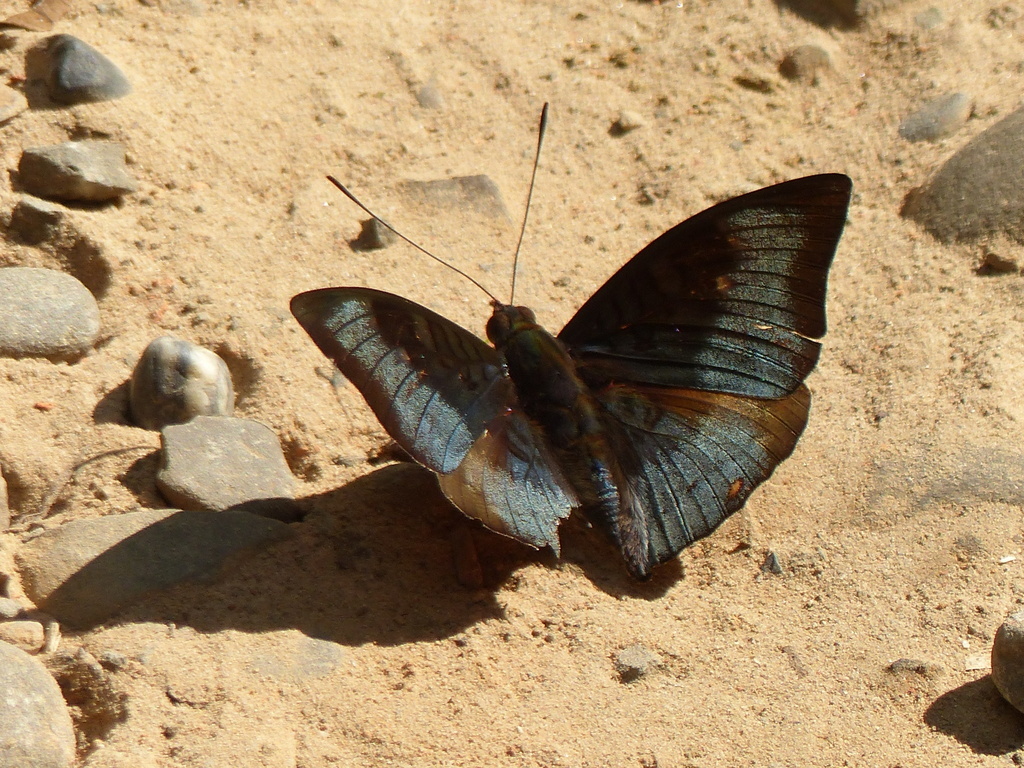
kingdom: Animalia
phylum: Arthropoda
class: Insecta
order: Lepidoptera
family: Nymphalidae
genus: Euthalia
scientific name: Euthalia monina
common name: Powdered baron
